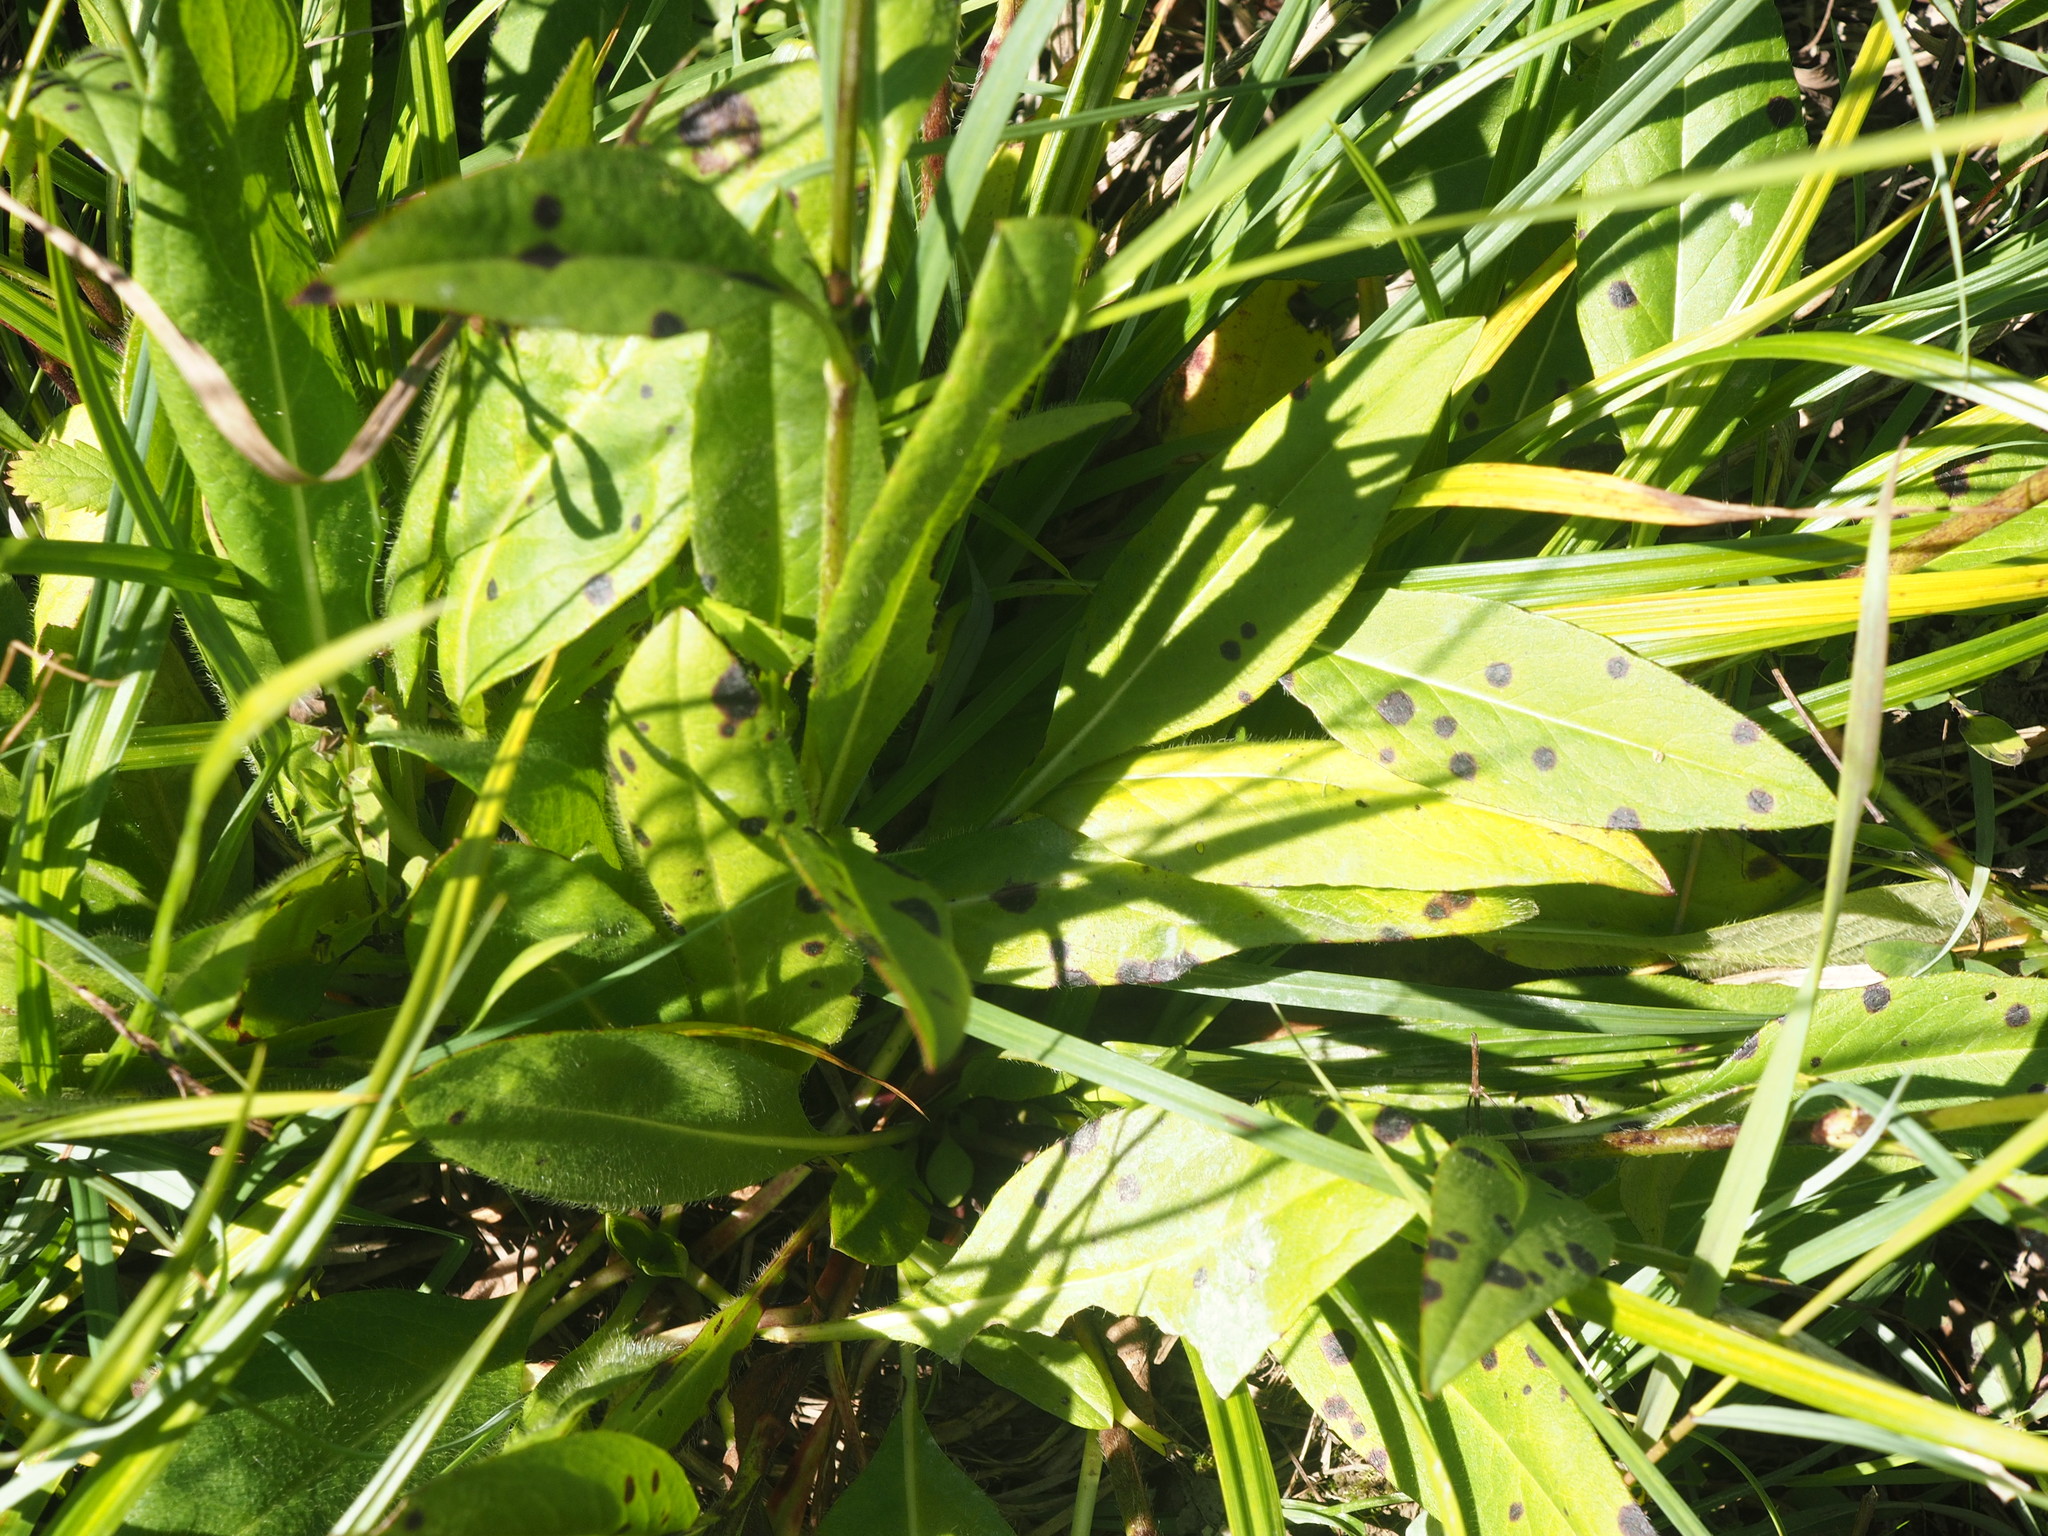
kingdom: Plantae
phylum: Tracheophyta
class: Magnoliopsida
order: Dipsacales
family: Caprifoliaceae
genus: Succisa
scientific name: Succisa pratensis
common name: Devil's-bit
